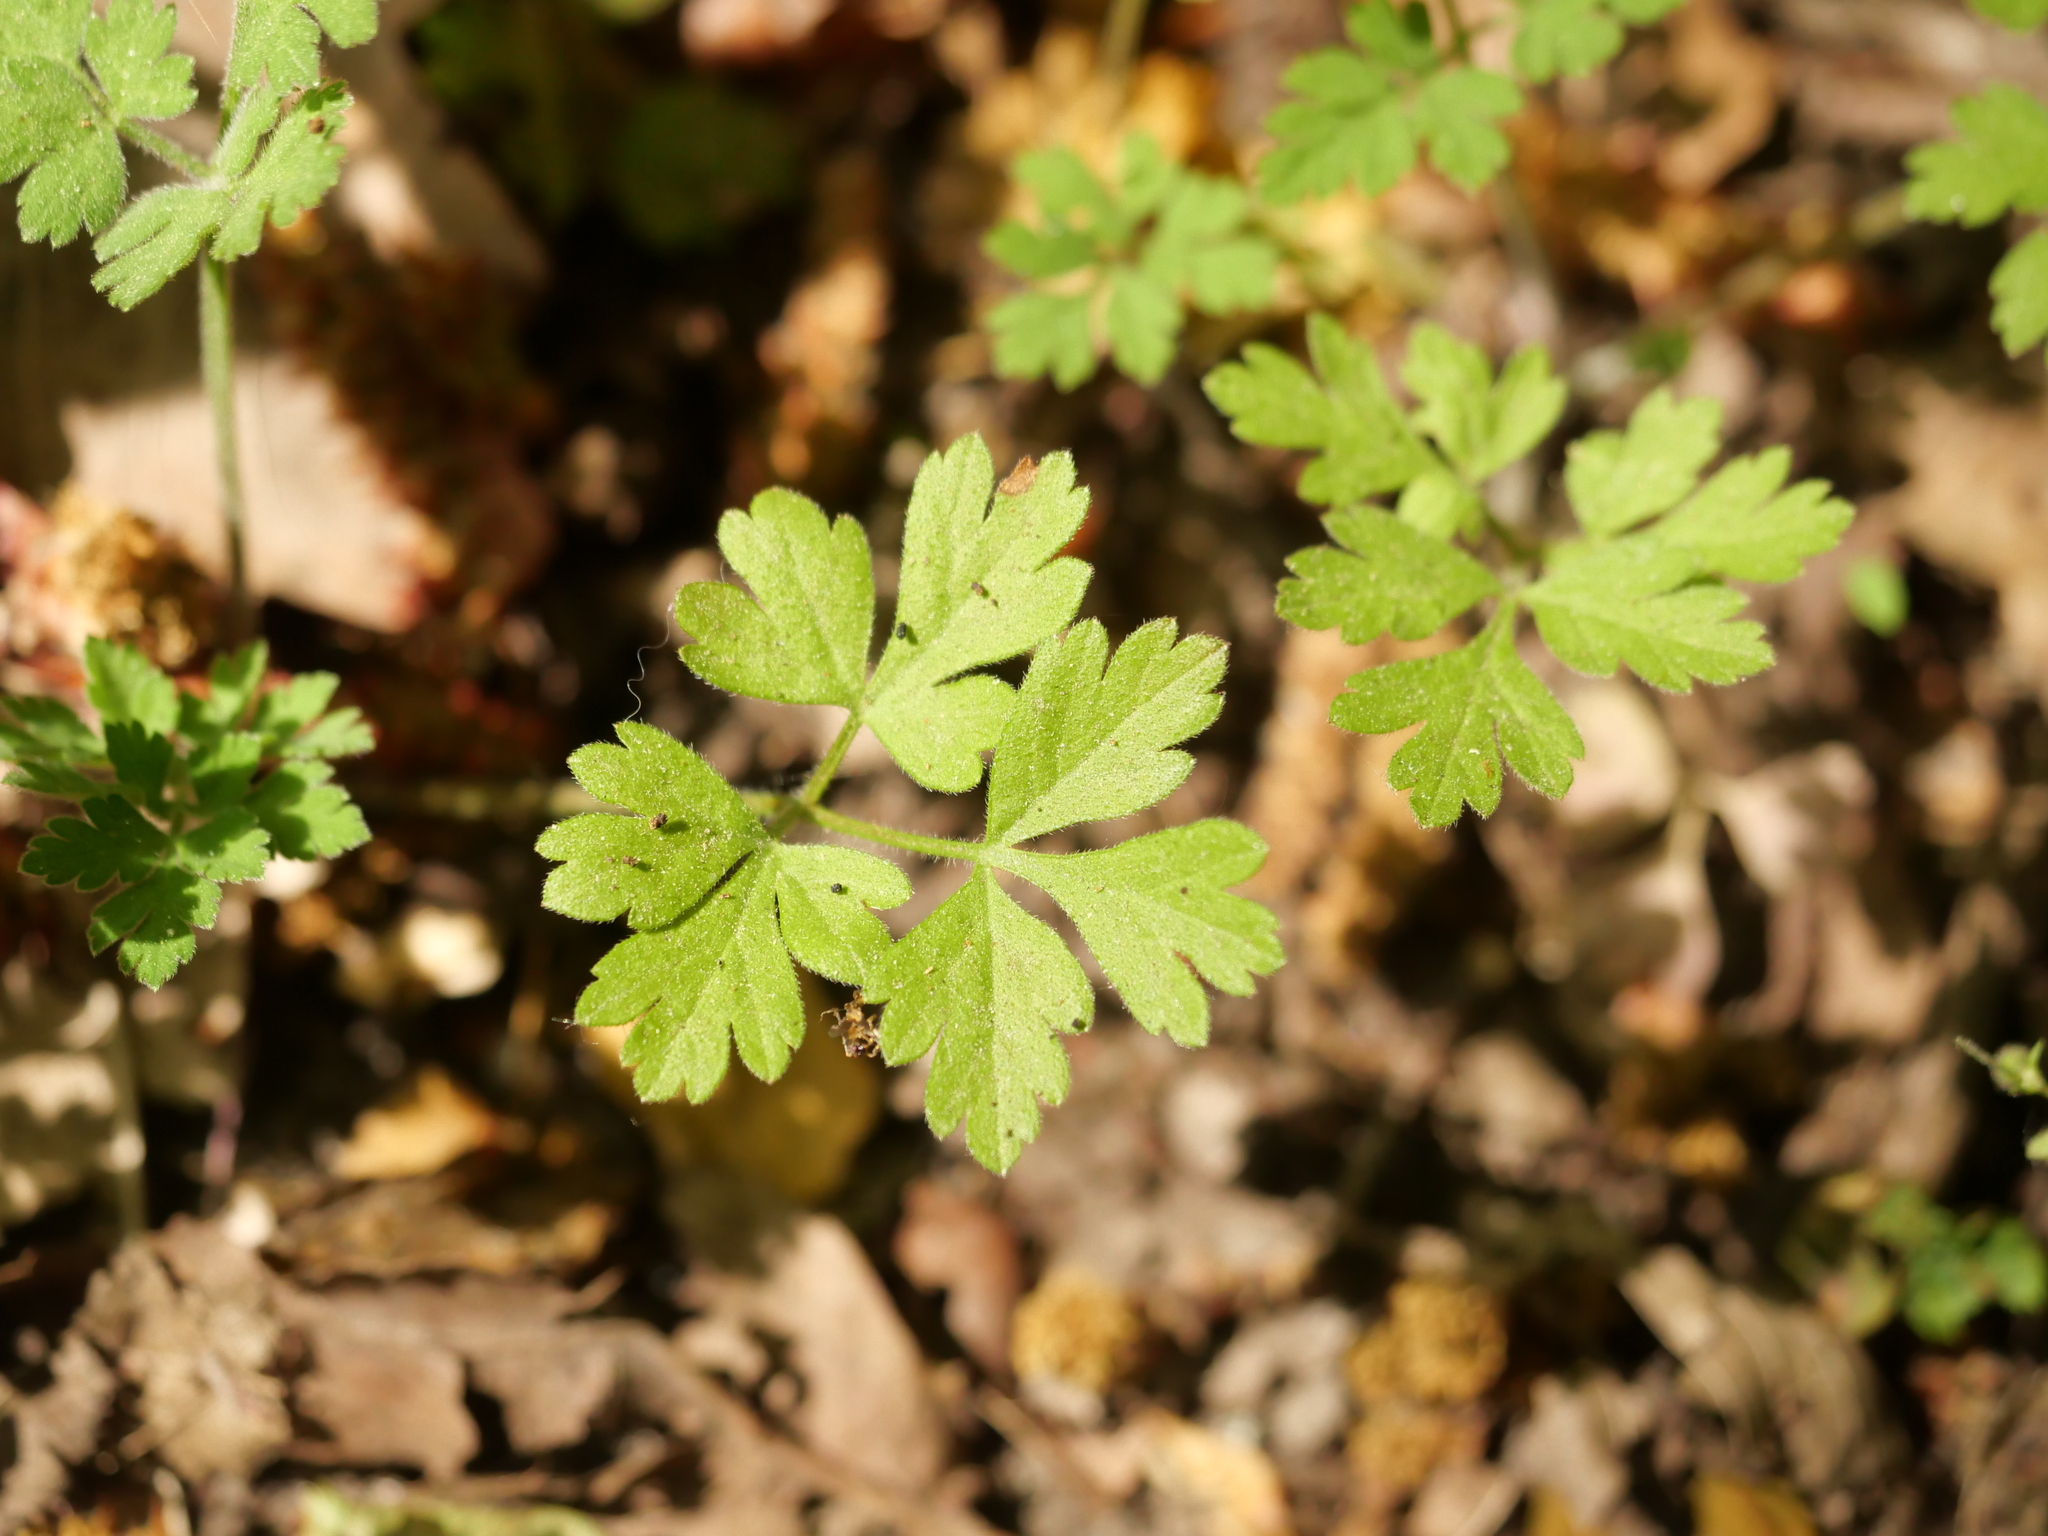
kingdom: Plantae
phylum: Tracheophyta
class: Magnoliopsida
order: Apiales
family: Apiaceae
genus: Chaerophyllum
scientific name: Chaerophyllum temulum
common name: Rough chervil
